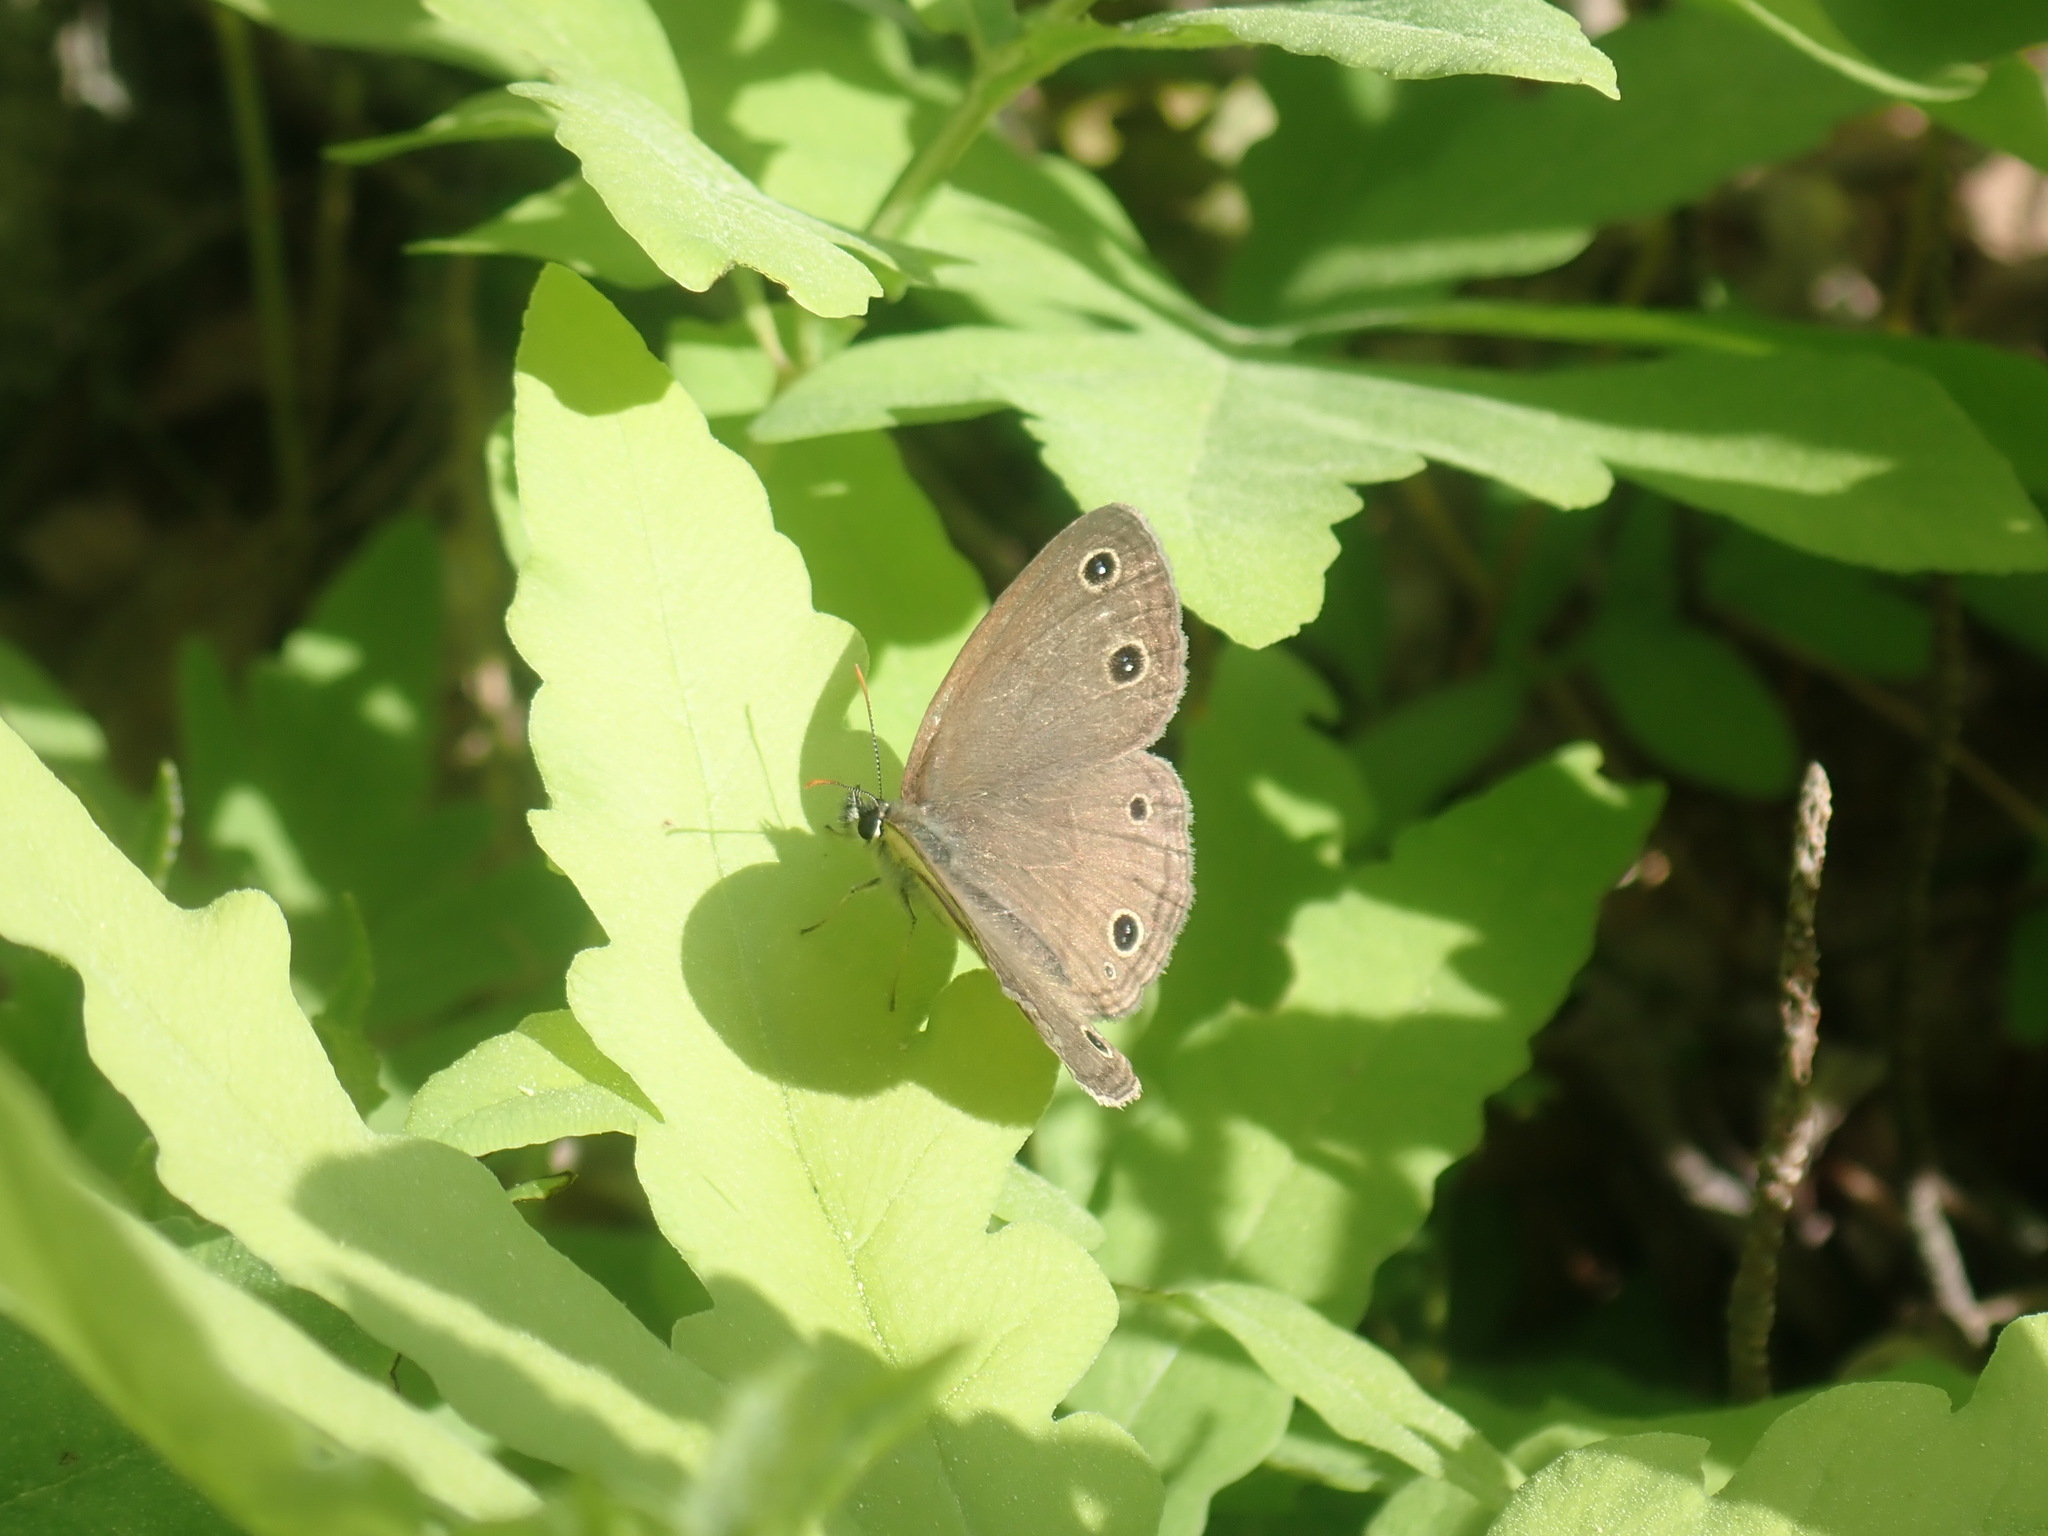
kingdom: Animalia
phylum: Arthropoda
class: Insecta
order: Lepidoptera
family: Nymphalidae
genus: Euptychia
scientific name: Euptychia cymela
